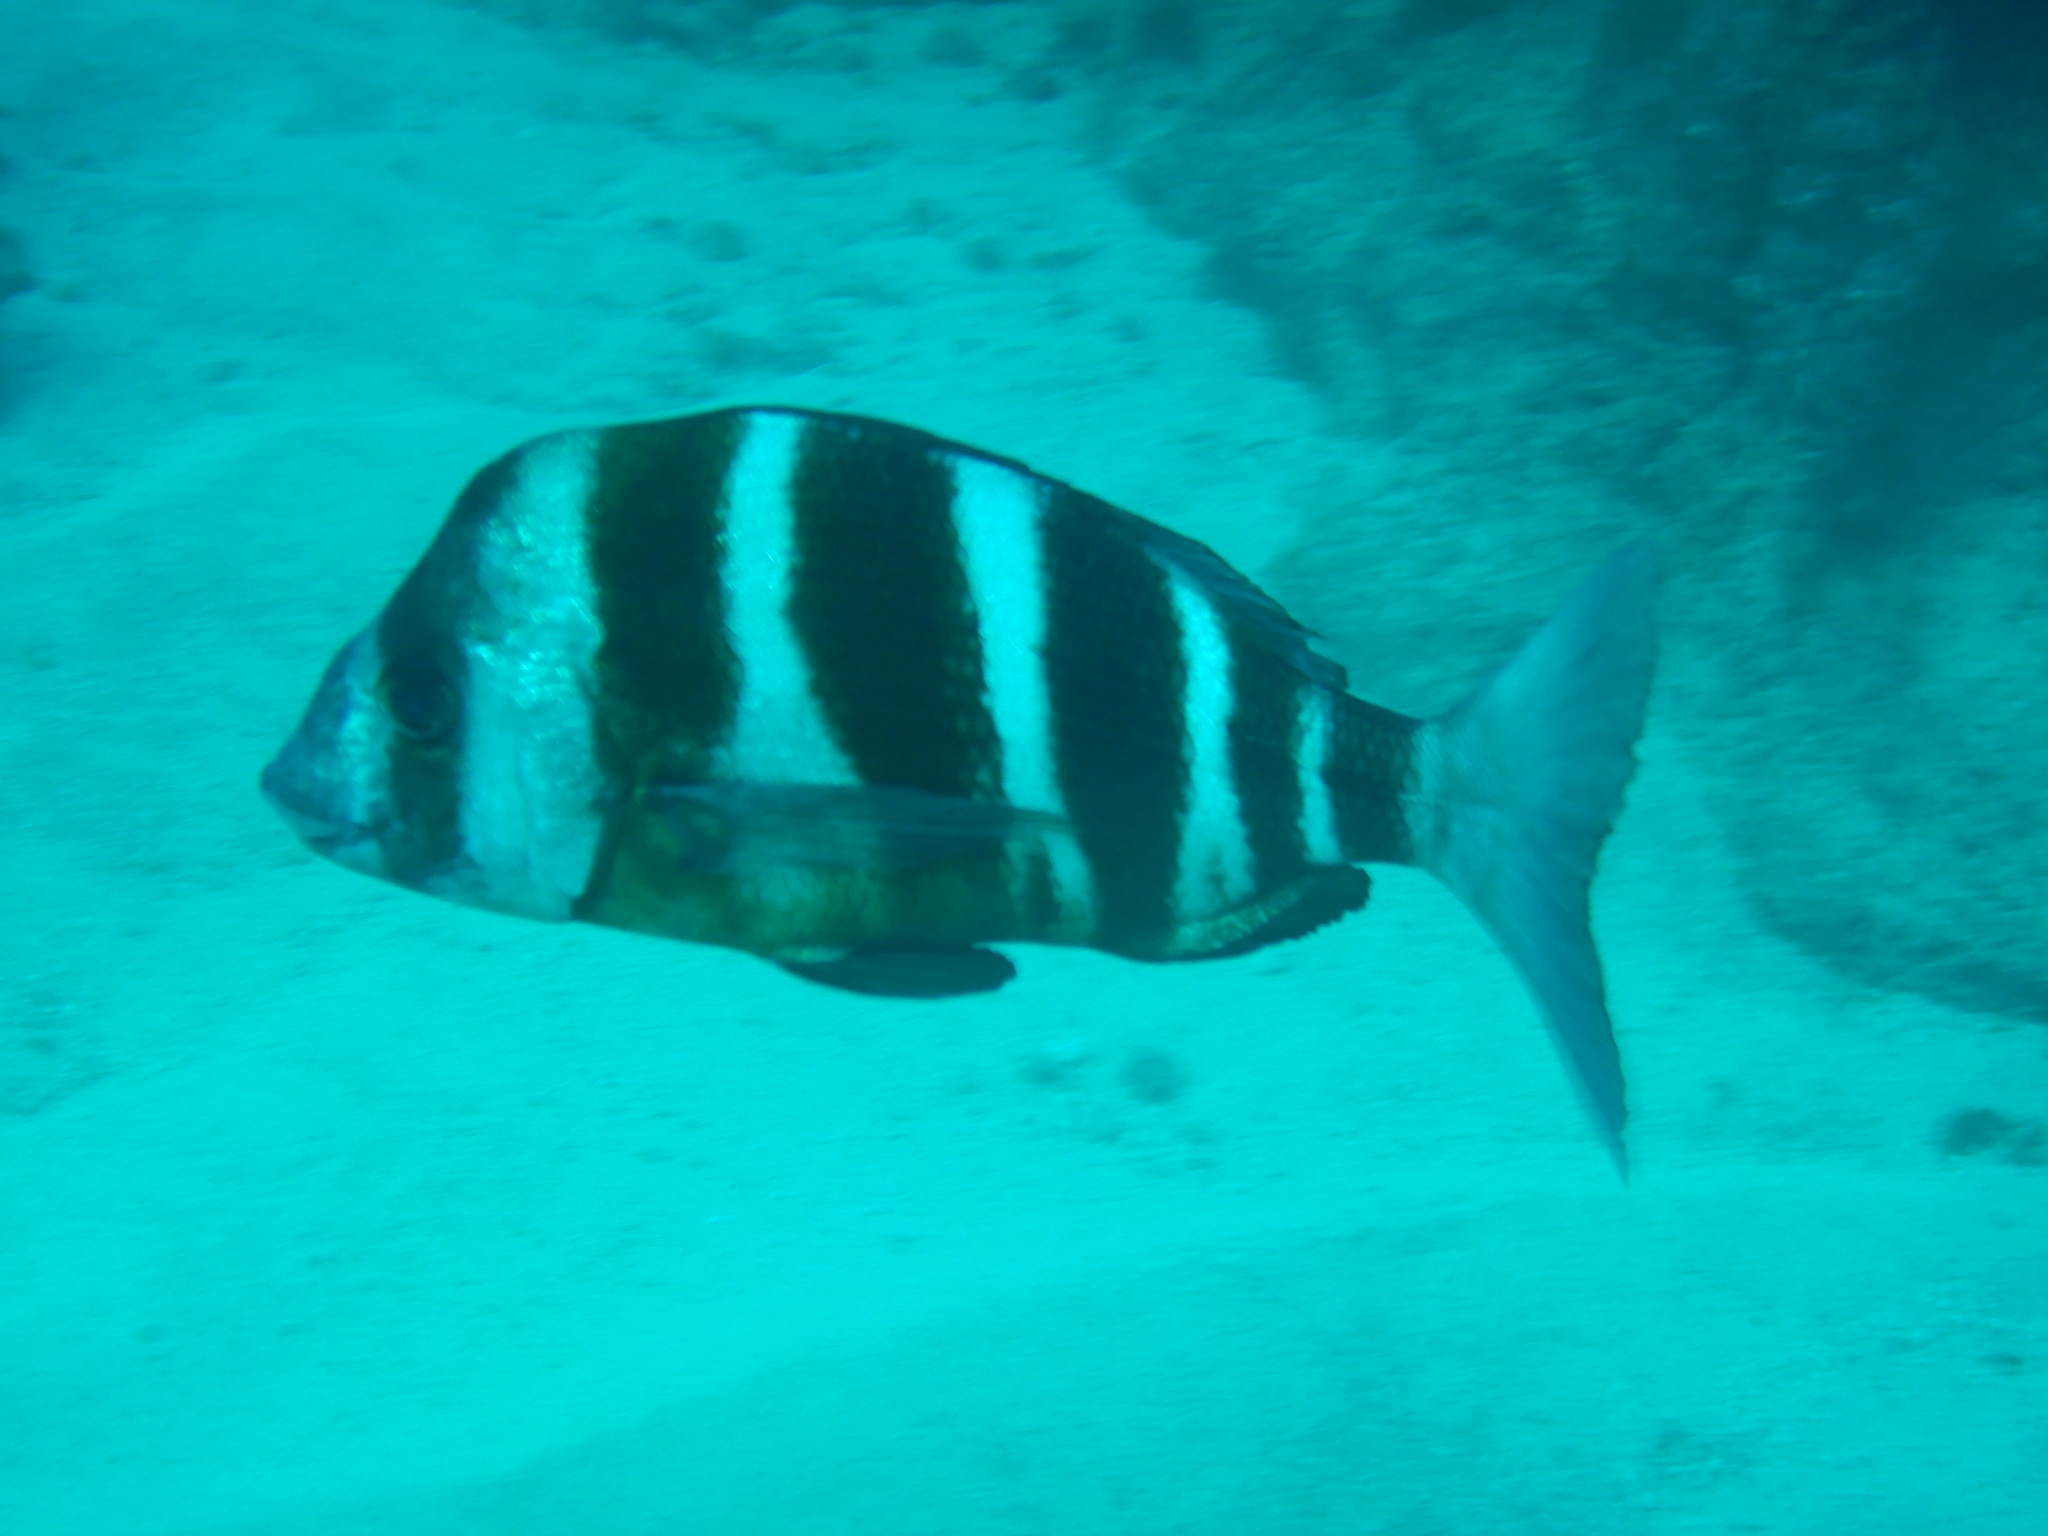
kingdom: Animalia
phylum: Chordata
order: Perciformes
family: Sparidae
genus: Diplodus
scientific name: Diplodus cervinus
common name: Oman porgy
